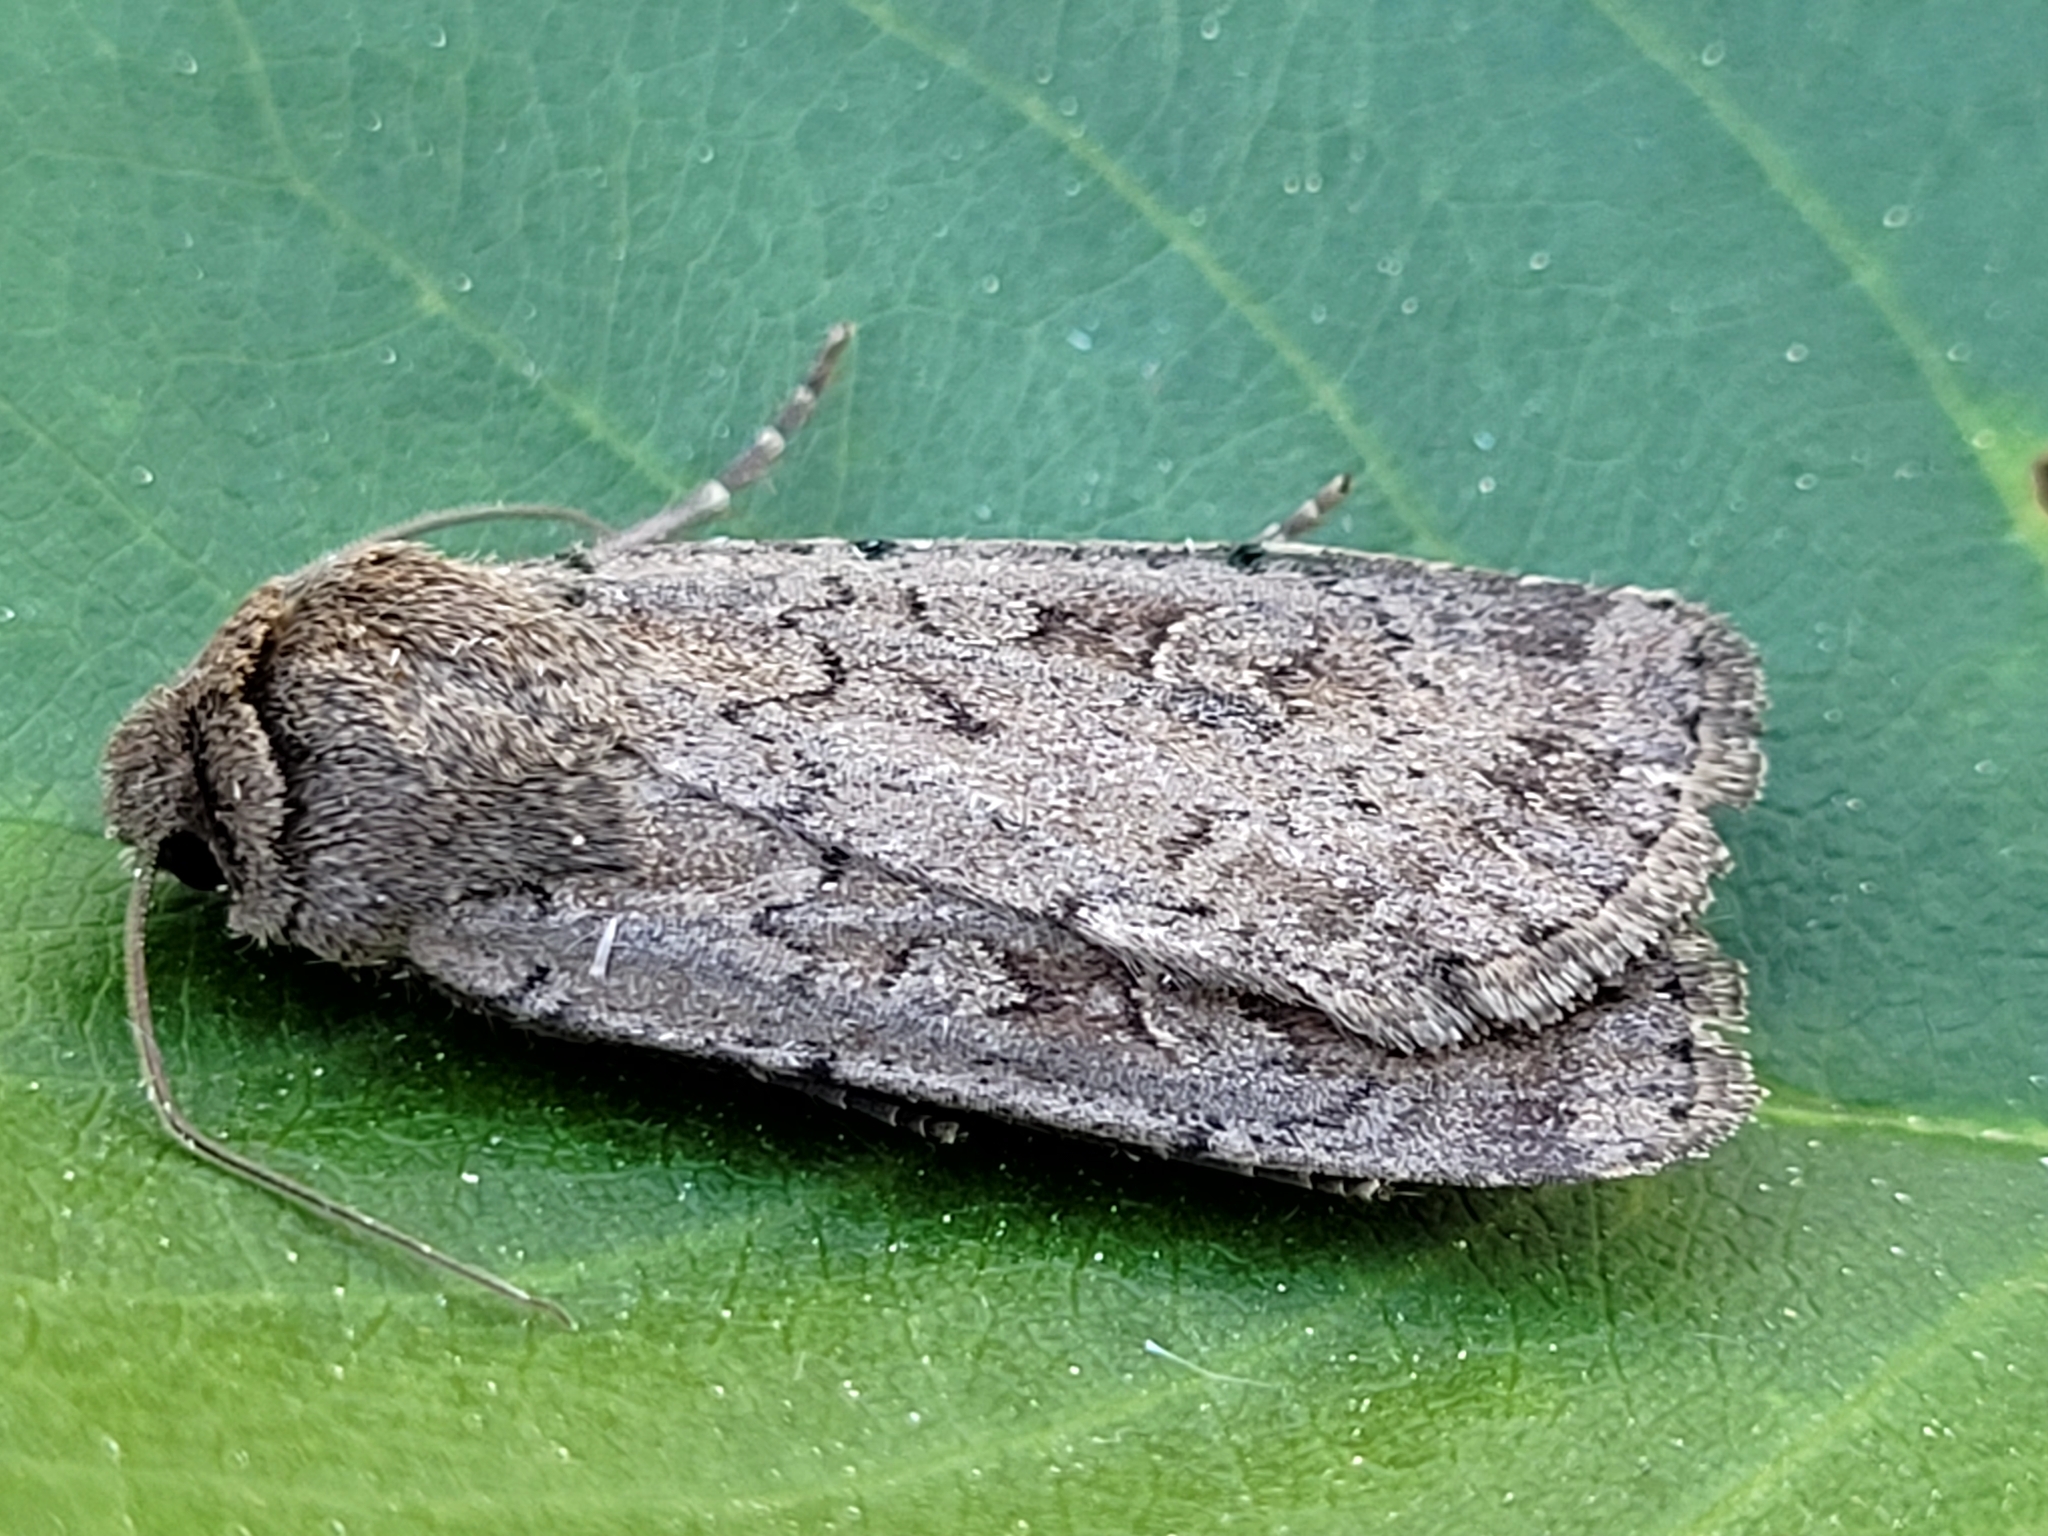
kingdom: Animalia
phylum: Arthropoda
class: Insecta
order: Lepidoptera
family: Noctuidae
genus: Actebia
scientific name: Actebia balanitis
